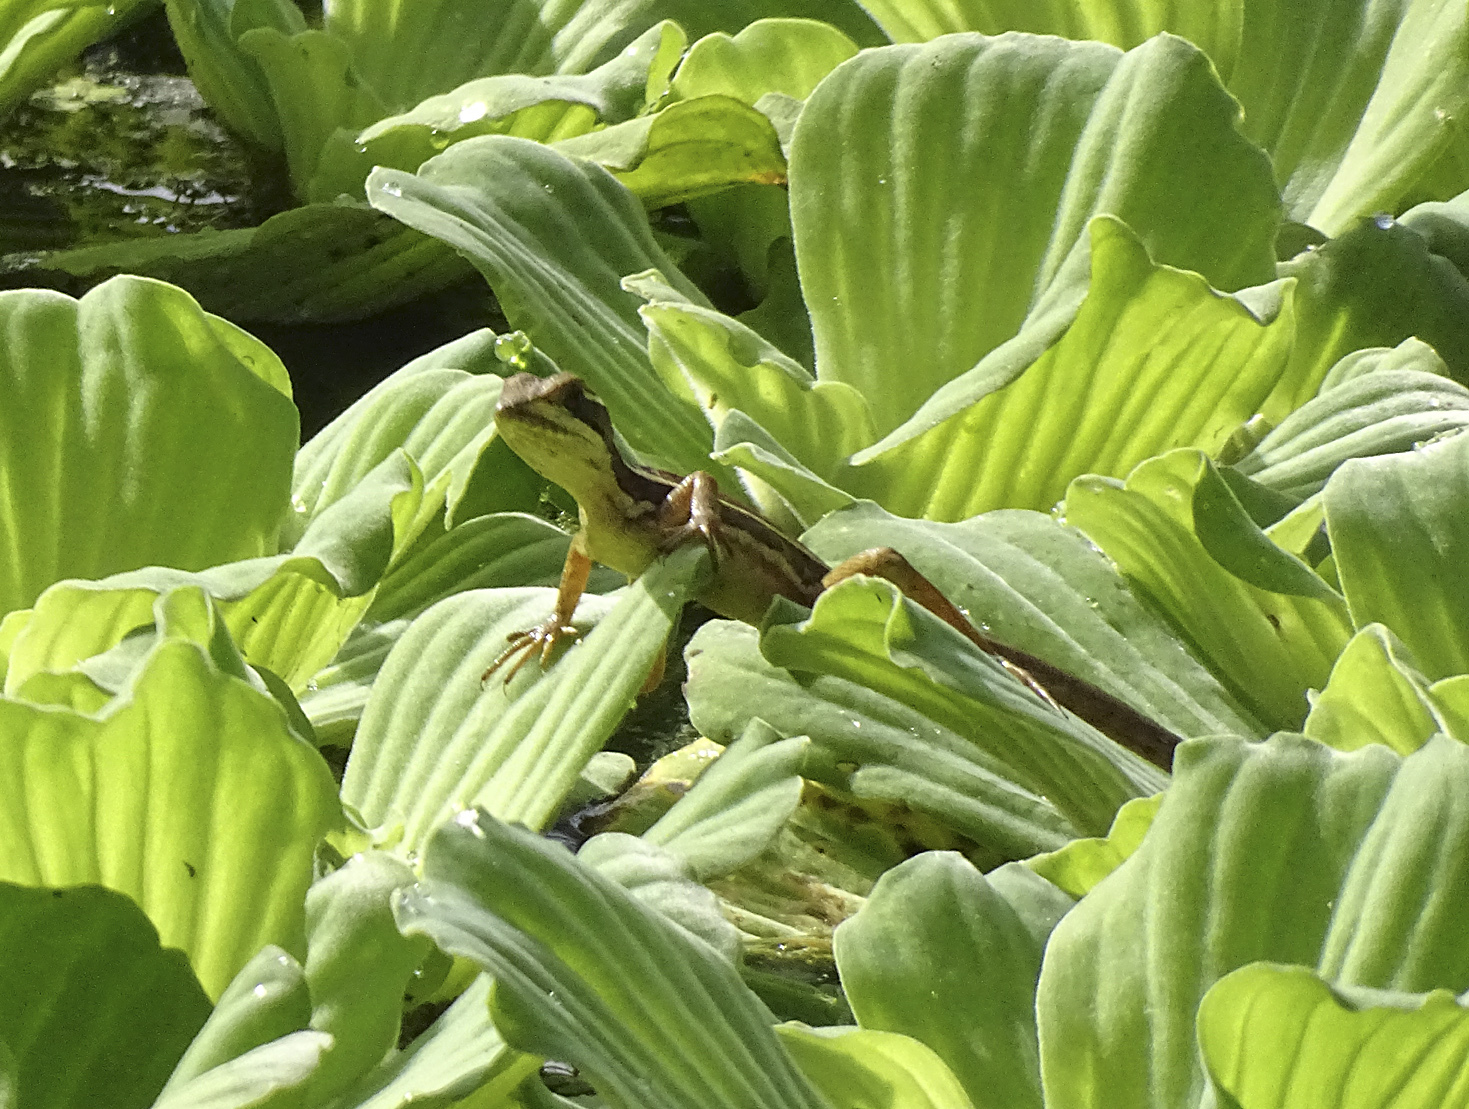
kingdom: Animalia
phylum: Chordata
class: Squamata
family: Corytophanidae
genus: Basiliscus
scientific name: Basiliscus vittatus
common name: Brown basilisk
